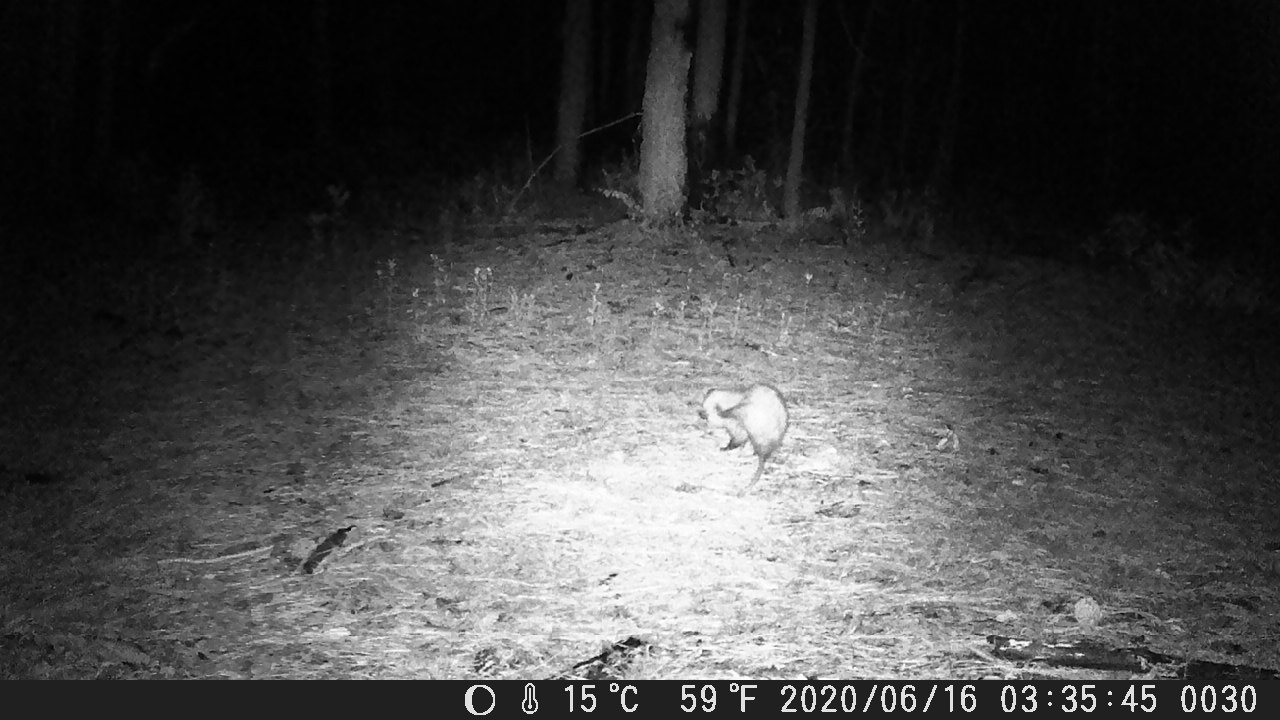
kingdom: Animalia
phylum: Chordata
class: Mammalia
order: Didelphimorphia
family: Didelphidae
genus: Didelphis
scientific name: Didelphis virginiana
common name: Virginia opossum
